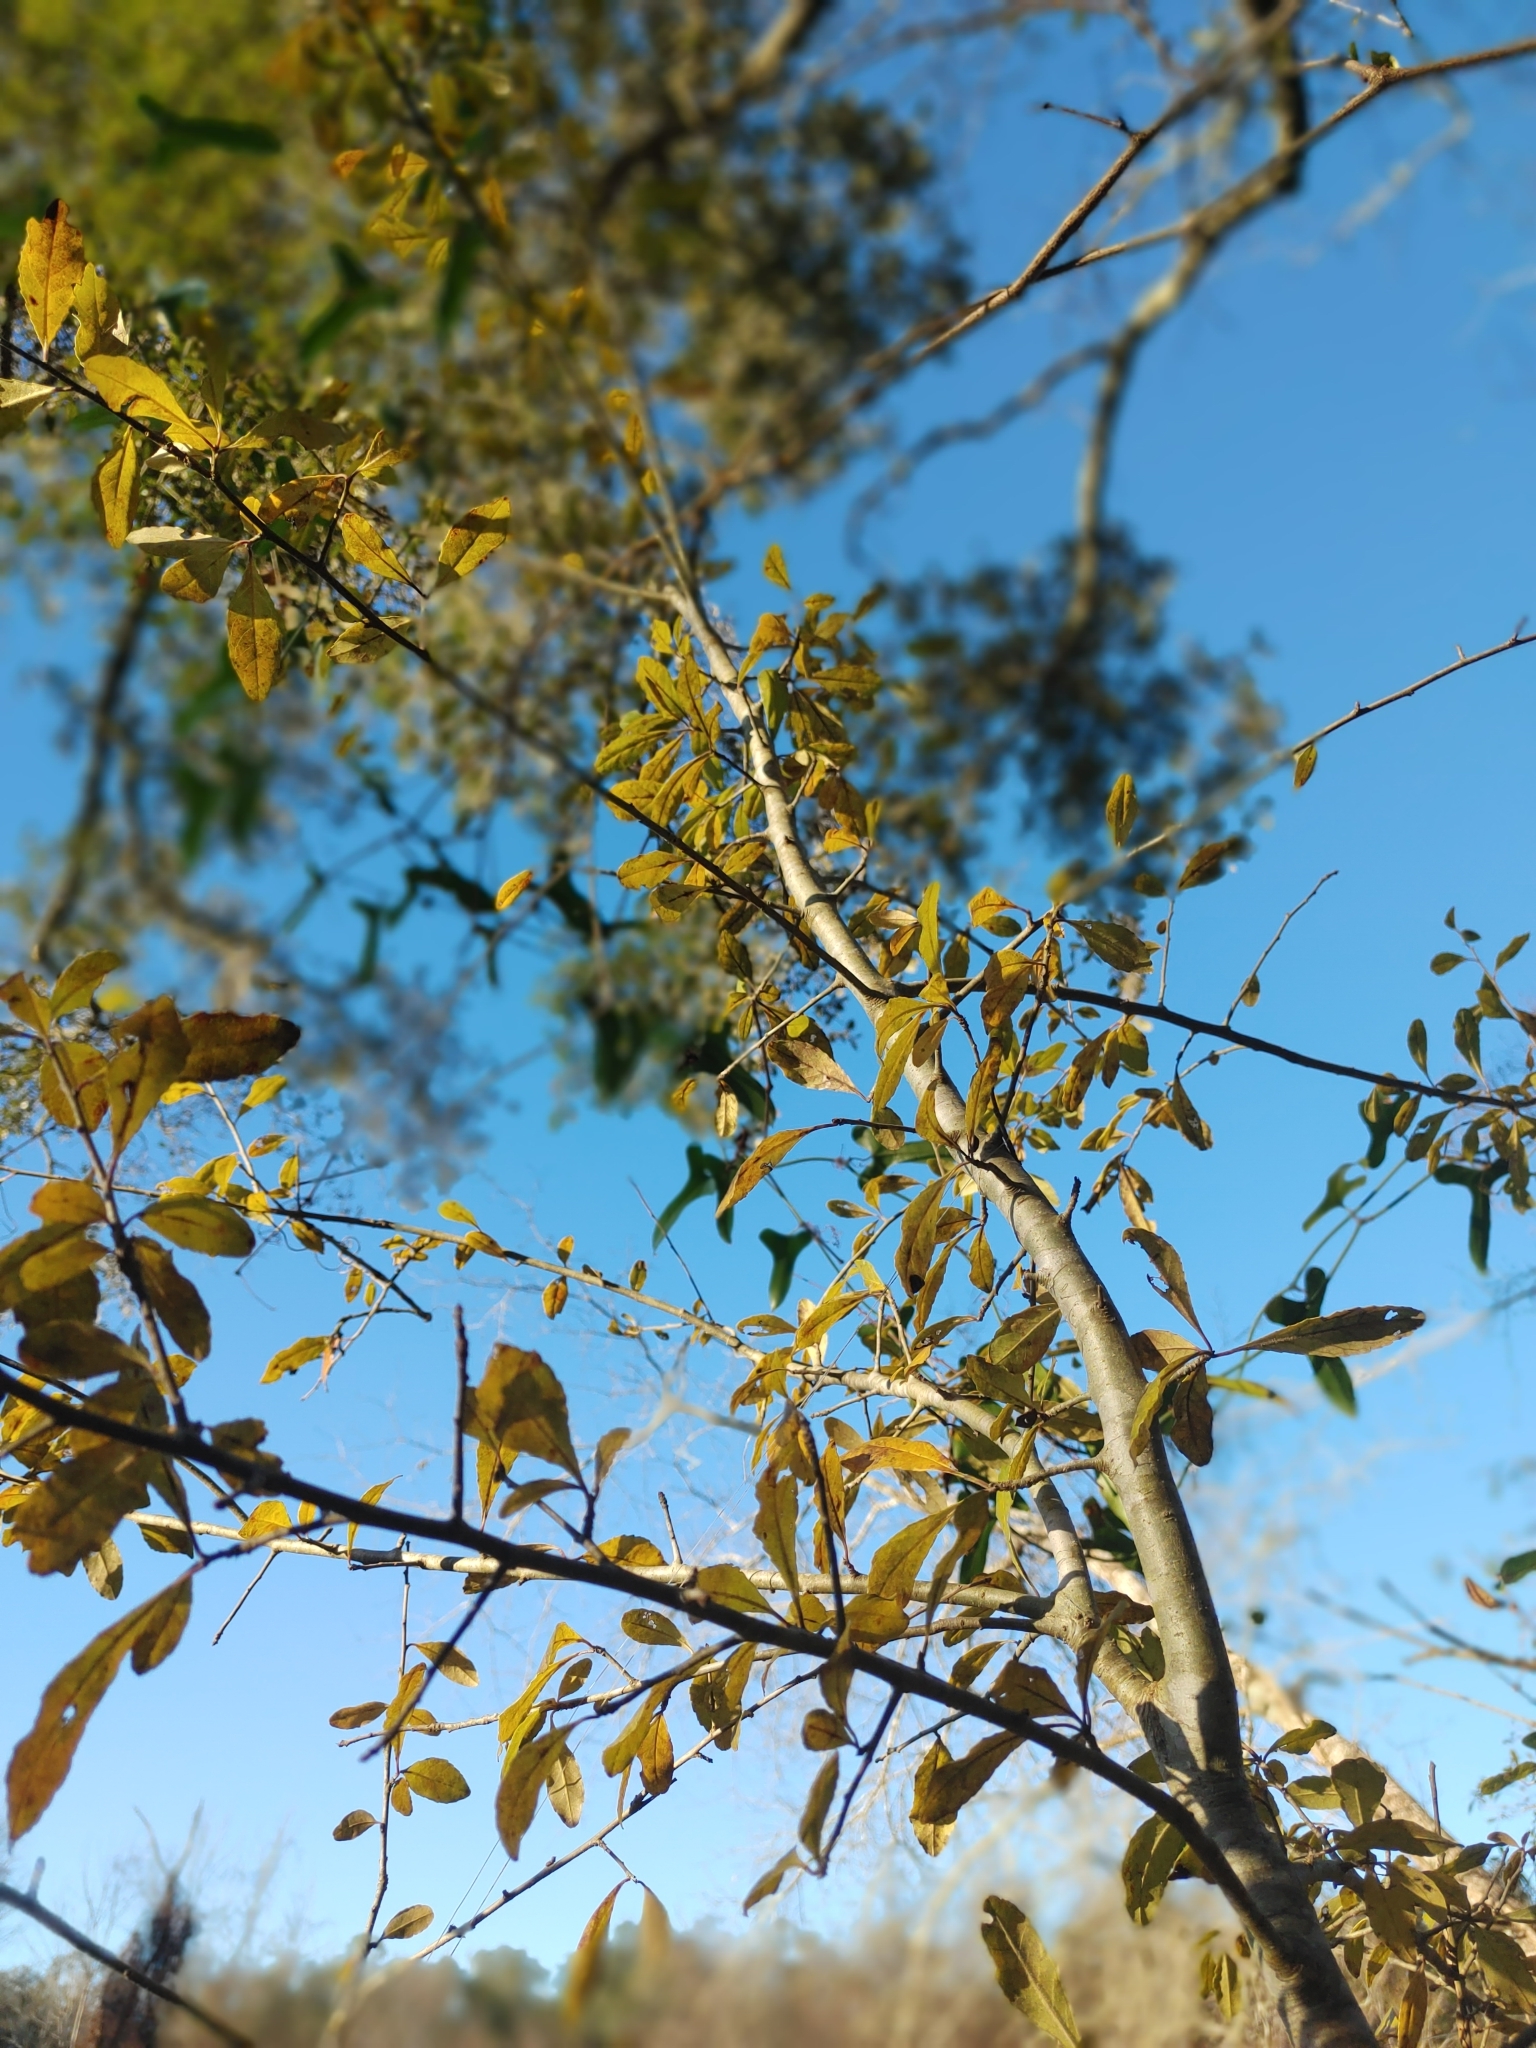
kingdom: Plantae
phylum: Tracheophyta
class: Magnoliopsida
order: Aquifoliales
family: Aquifoliaceae
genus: Ilex
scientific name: Ilex decidua
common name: Possum-haw
